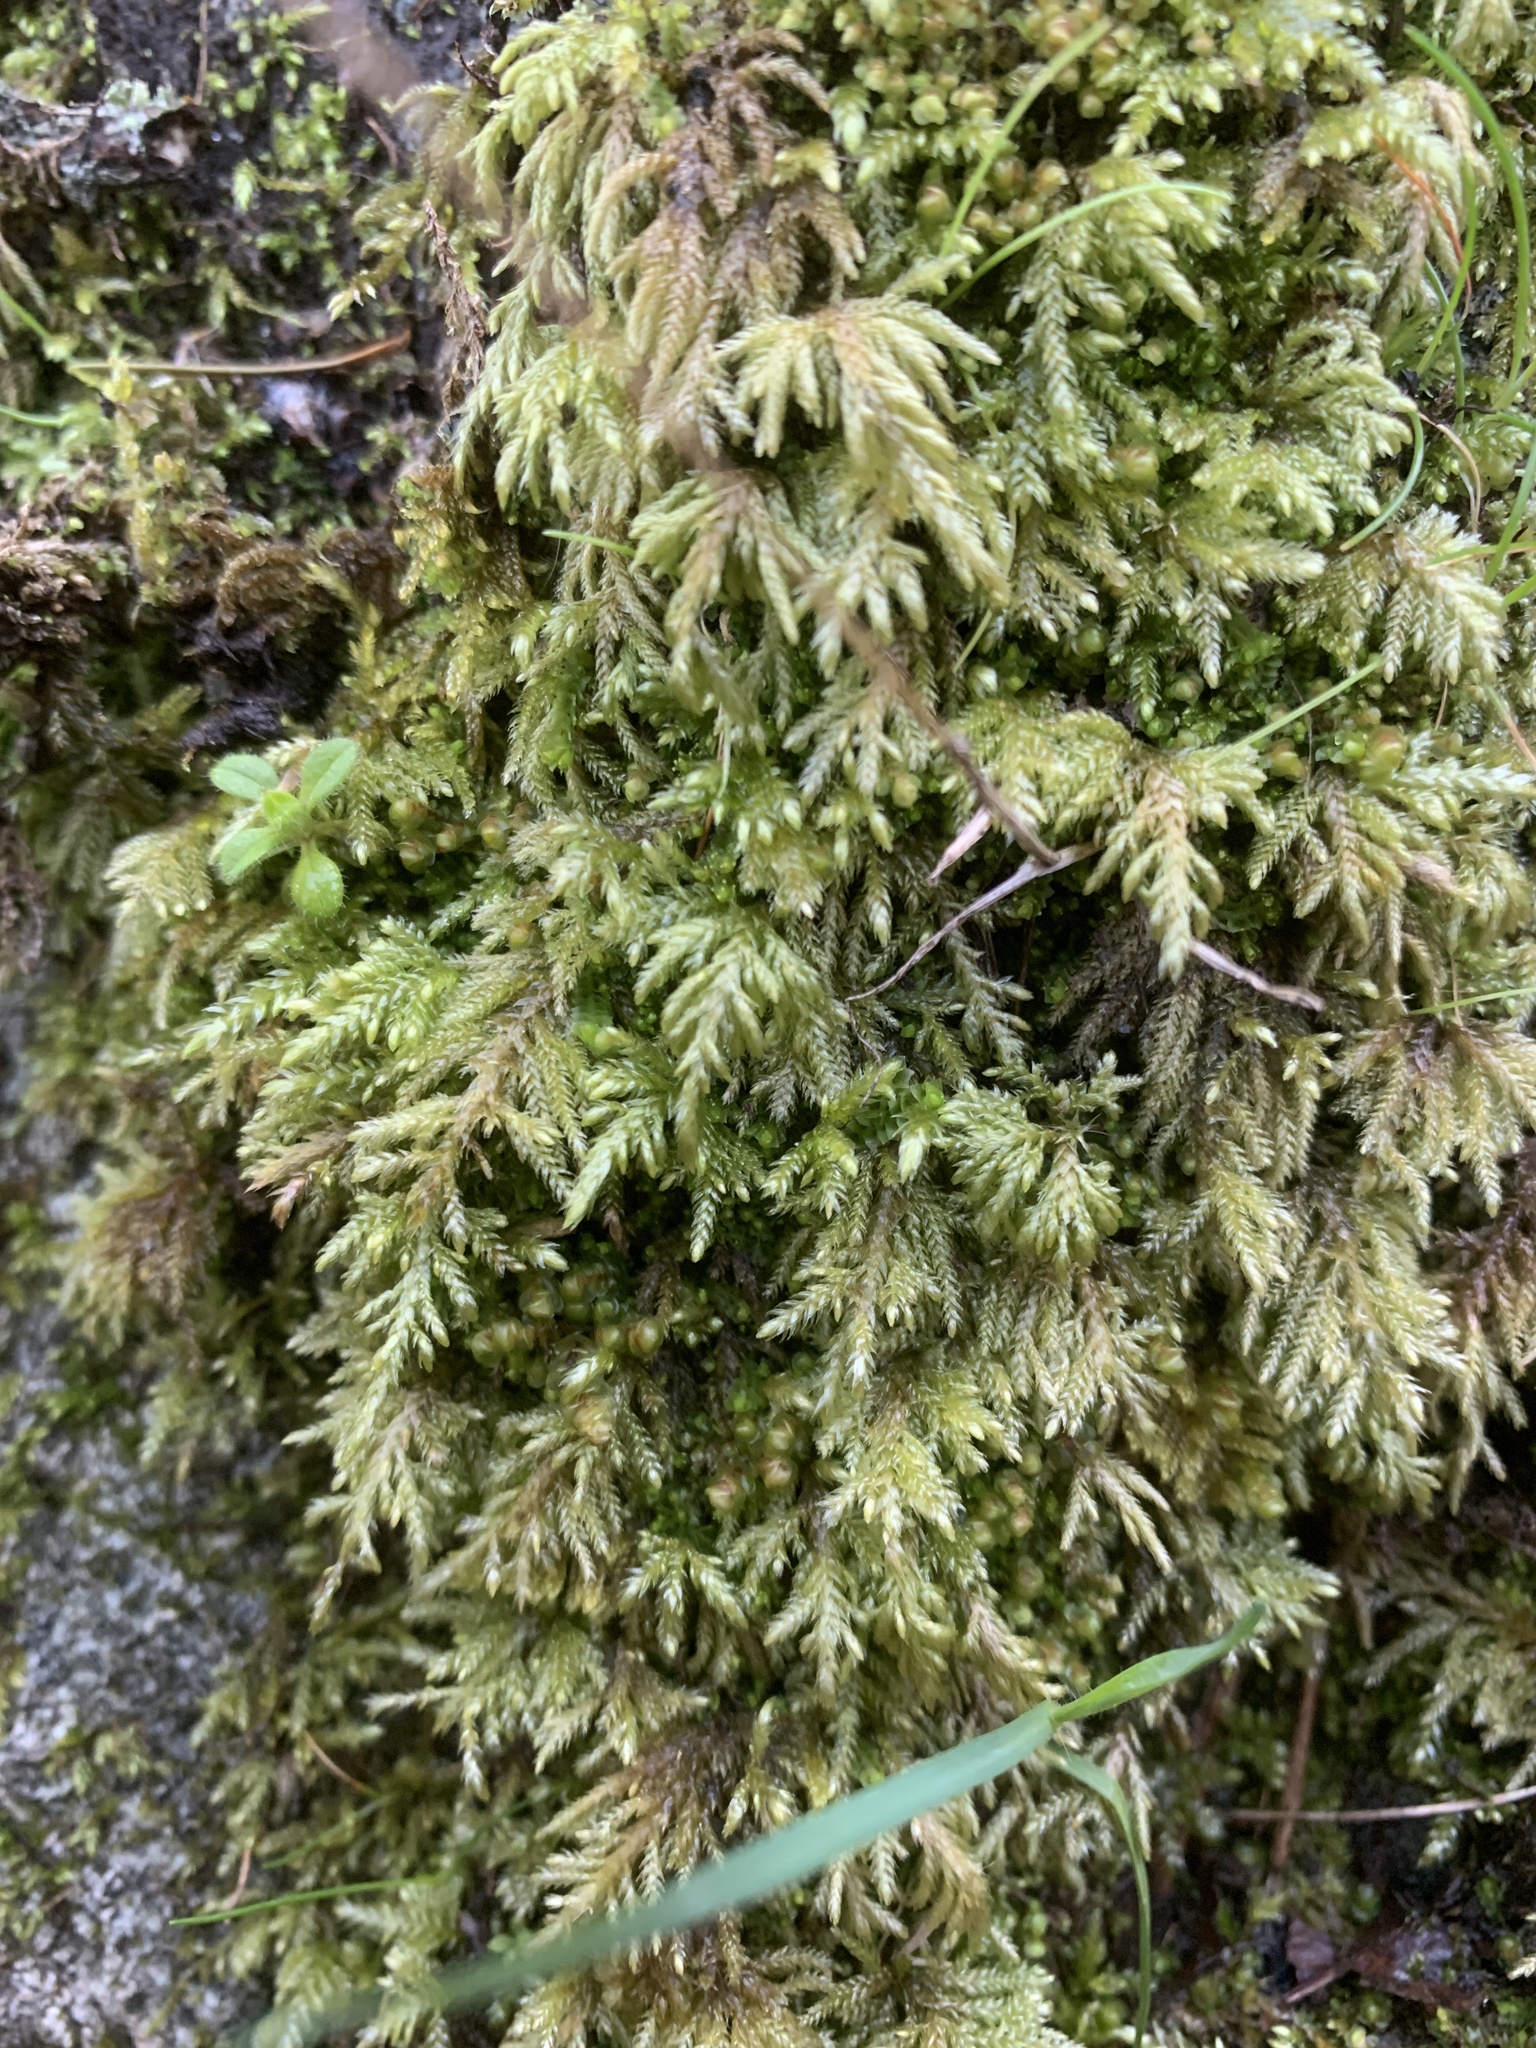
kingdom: Plantae
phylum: Bryophyta
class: Bryopsida
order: Hypnales
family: Lembophyllaceae
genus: Pseudisothecium
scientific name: Pseudisothecium stoloniferum
